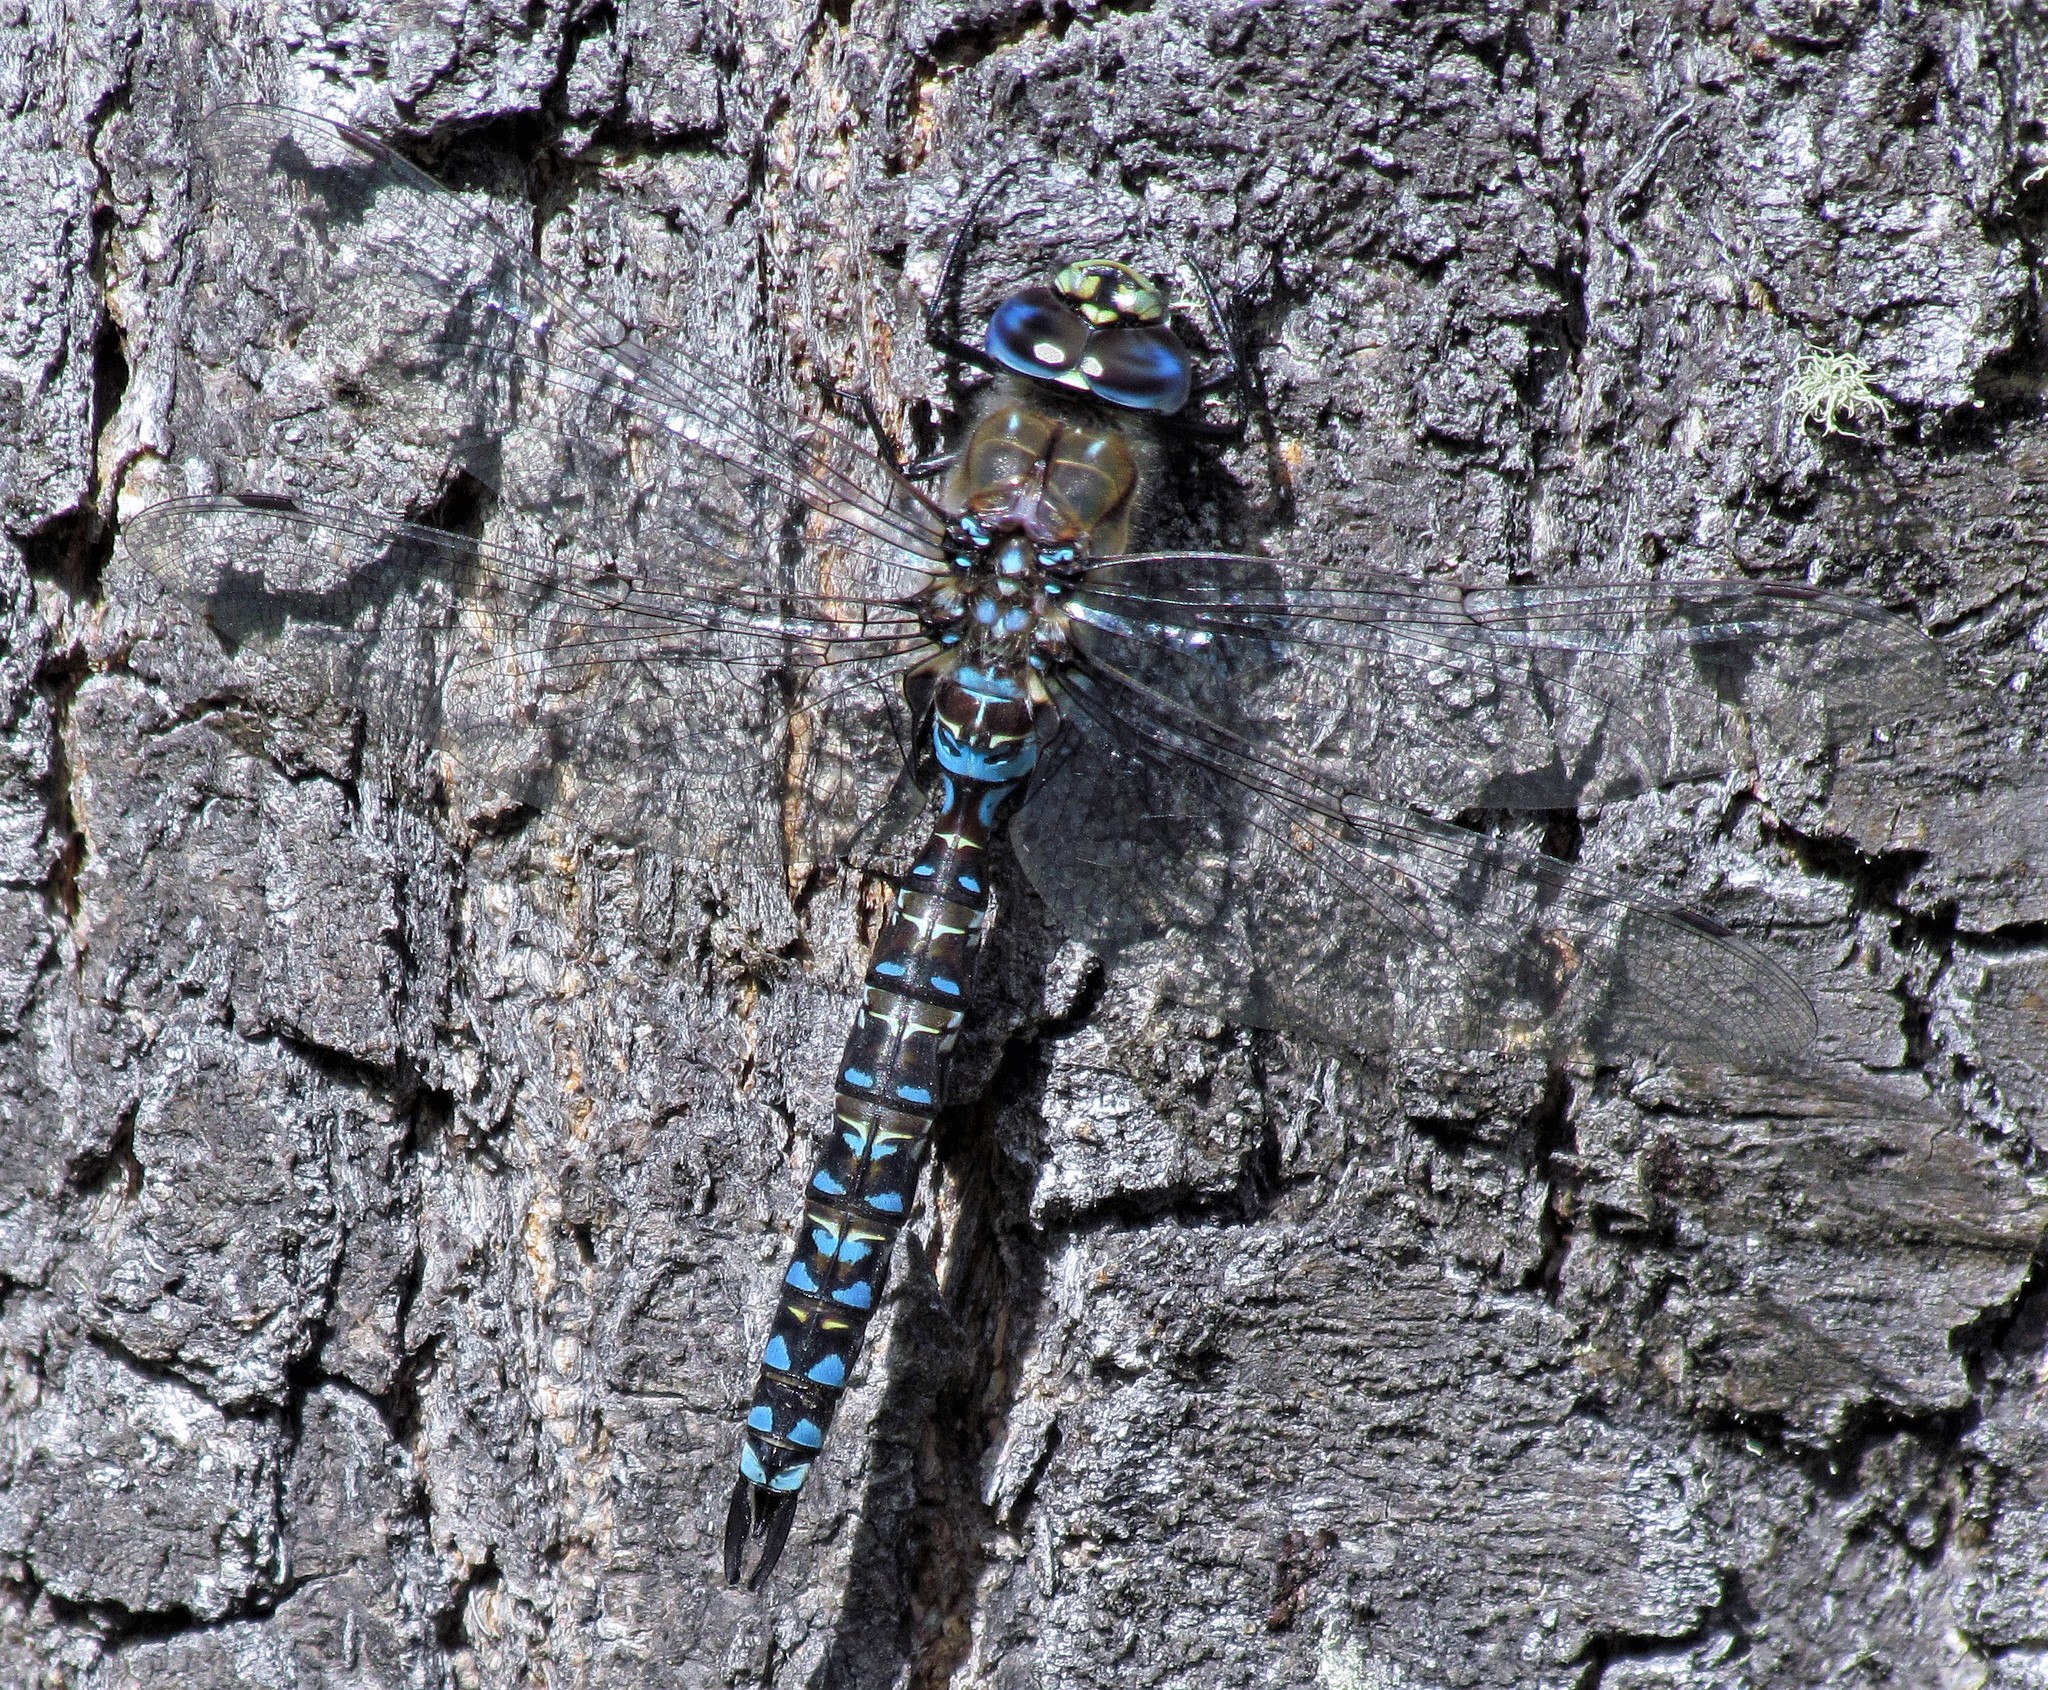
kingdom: Animalia
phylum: Arthropoda
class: Insecta
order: Odonata
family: Aeshnidae
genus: Rhionaeschna
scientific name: Rhionaeschna variegata
